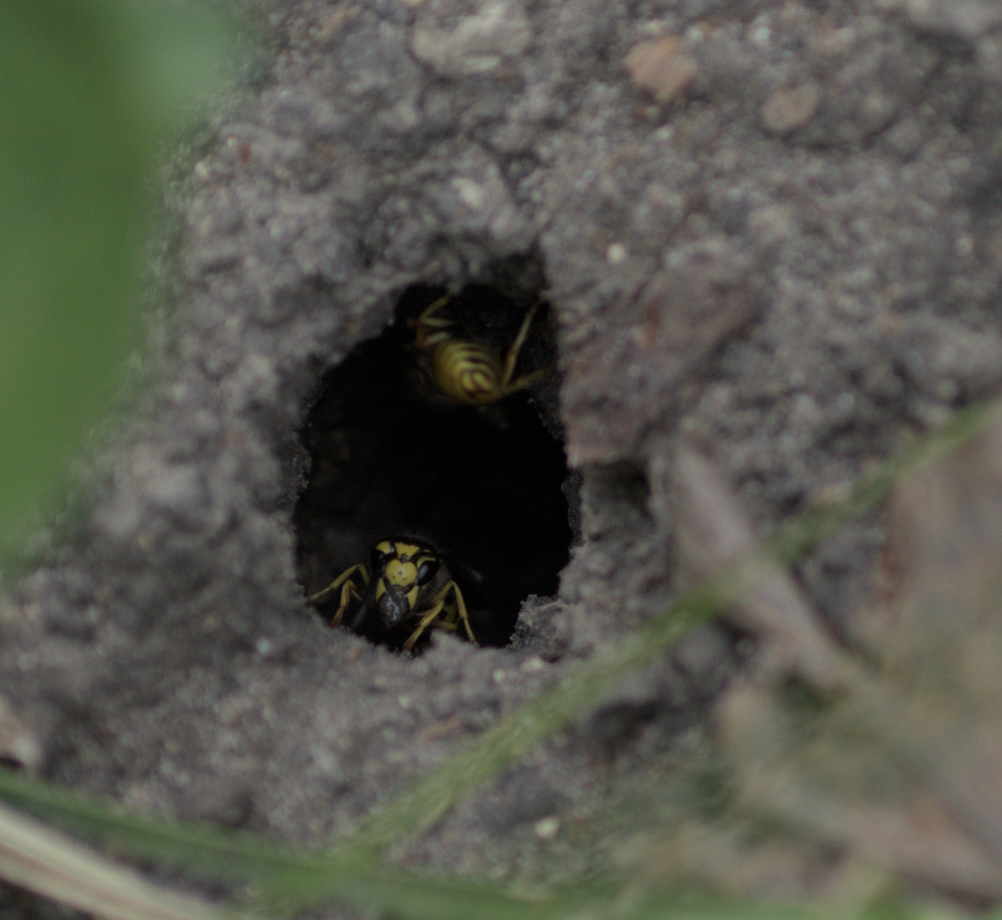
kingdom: Animalia
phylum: Arthropoda
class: Insecta
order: Hymenoptera
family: Vespidae
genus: Vespula
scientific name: Vespula maculifrons
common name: Eastern yellowjacket
